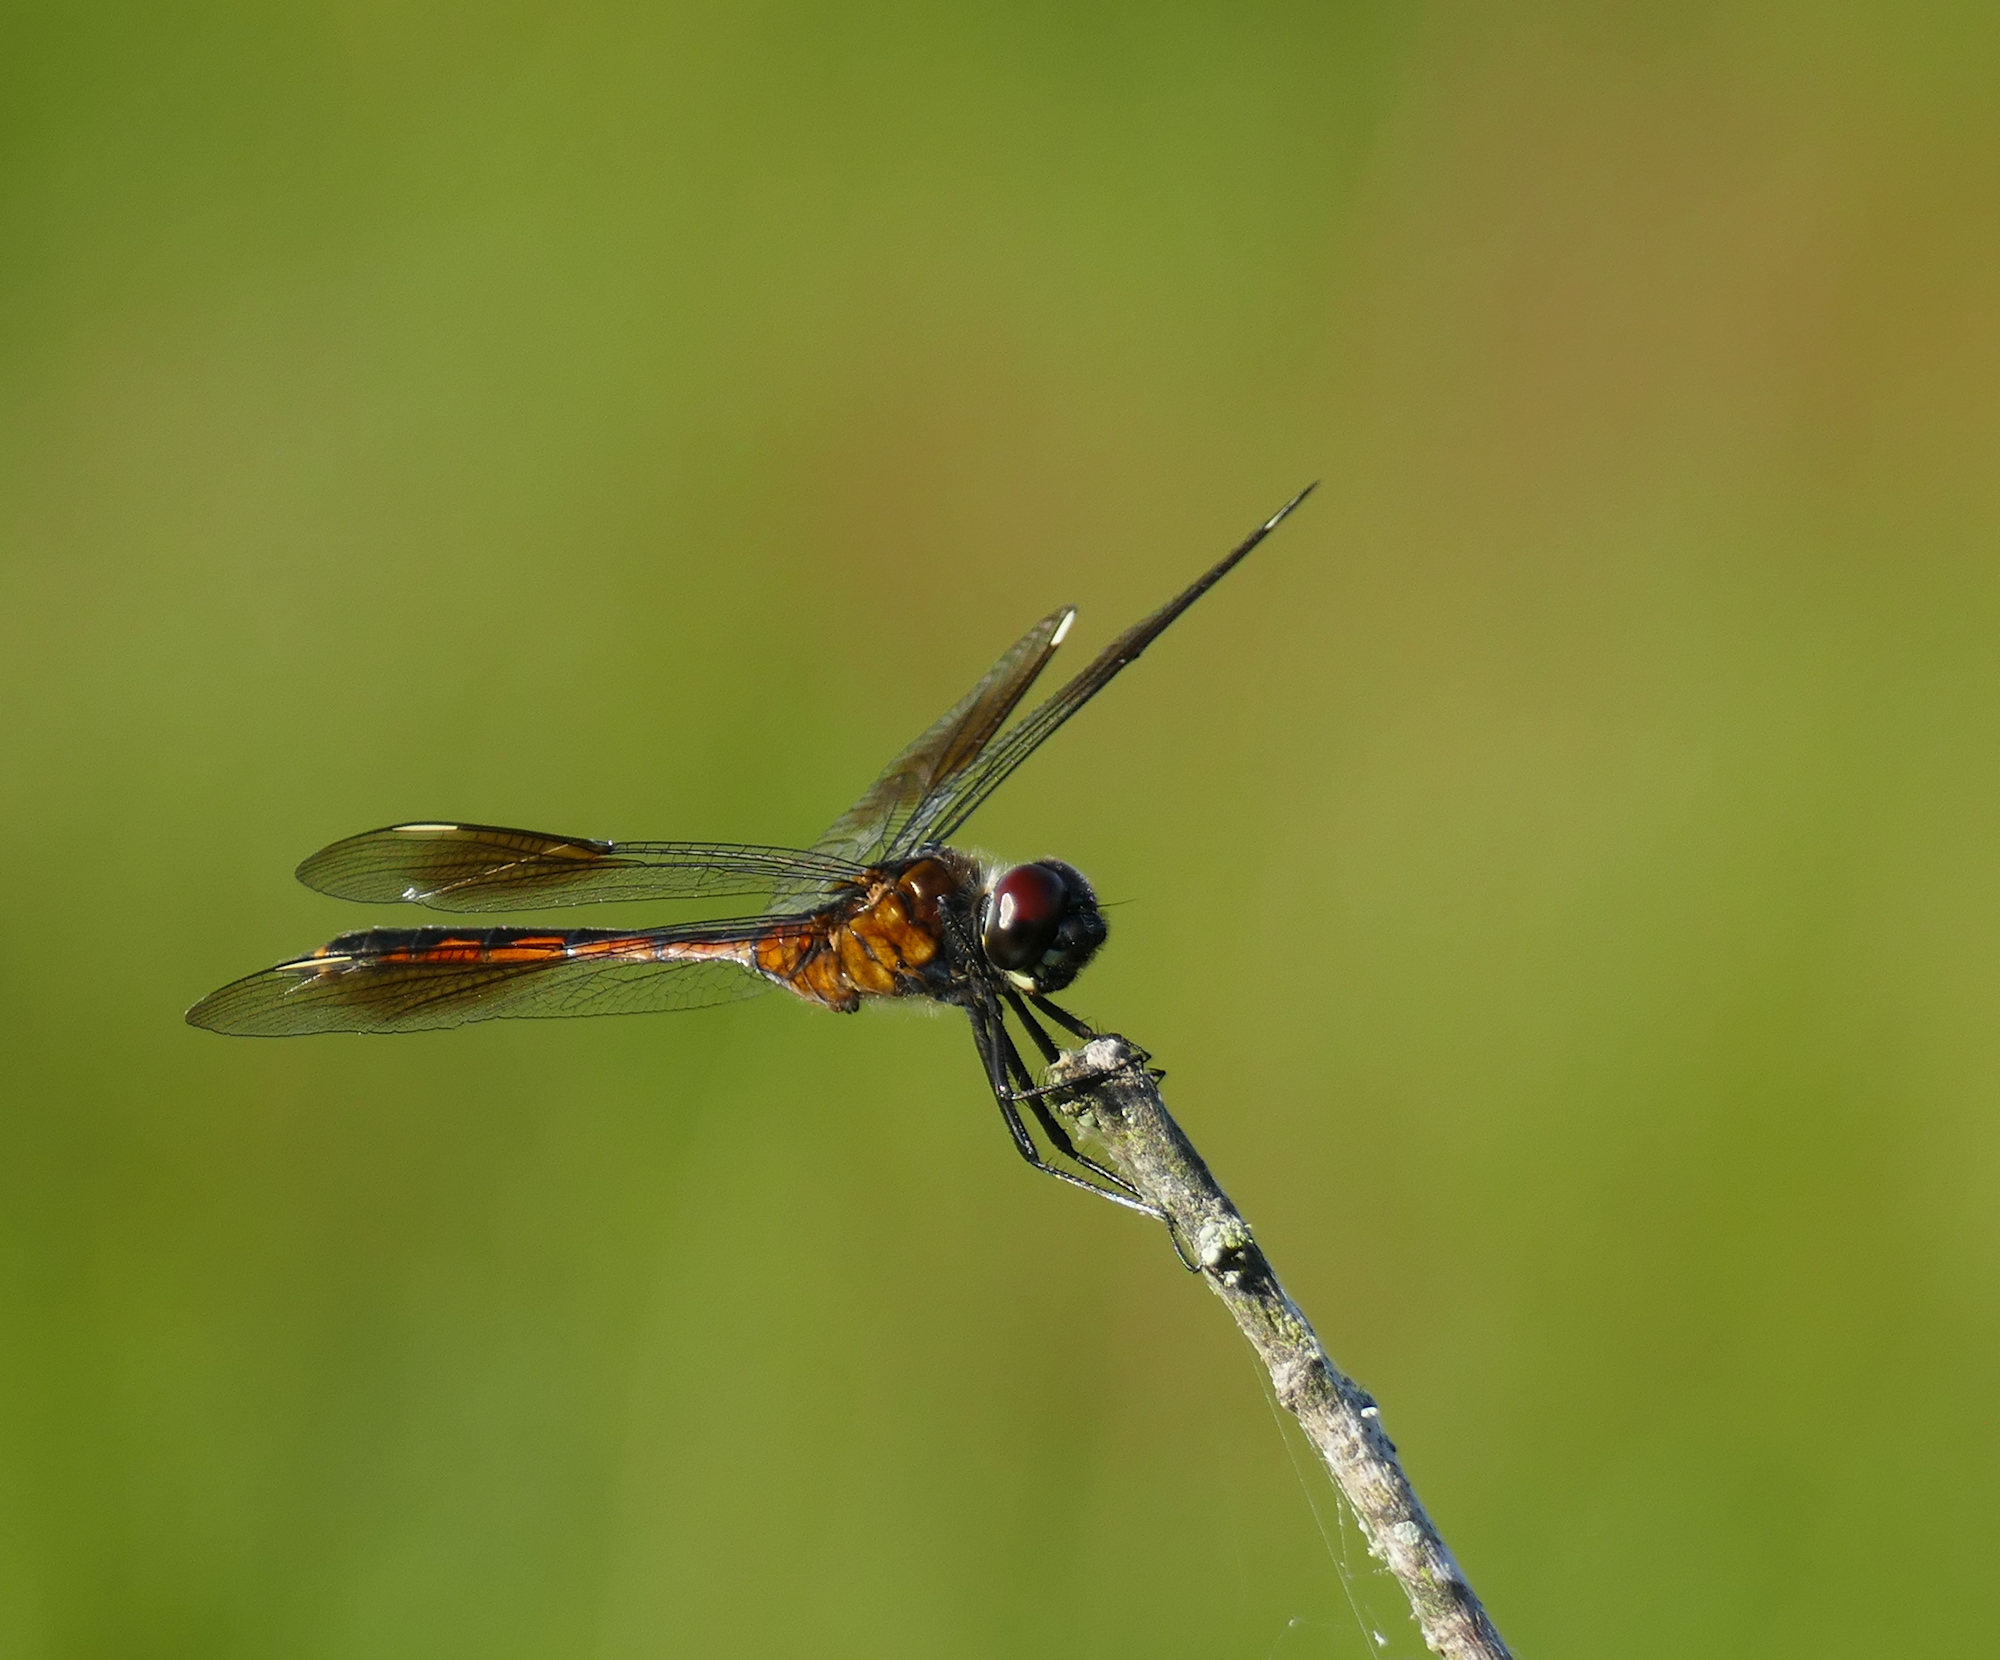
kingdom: Animalia
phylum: Arthropoda
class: Insecta
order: Odonata
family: Libellulidae
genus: Brachymesia
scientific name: Brachymesia gravida
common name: Four-spotted pennant
